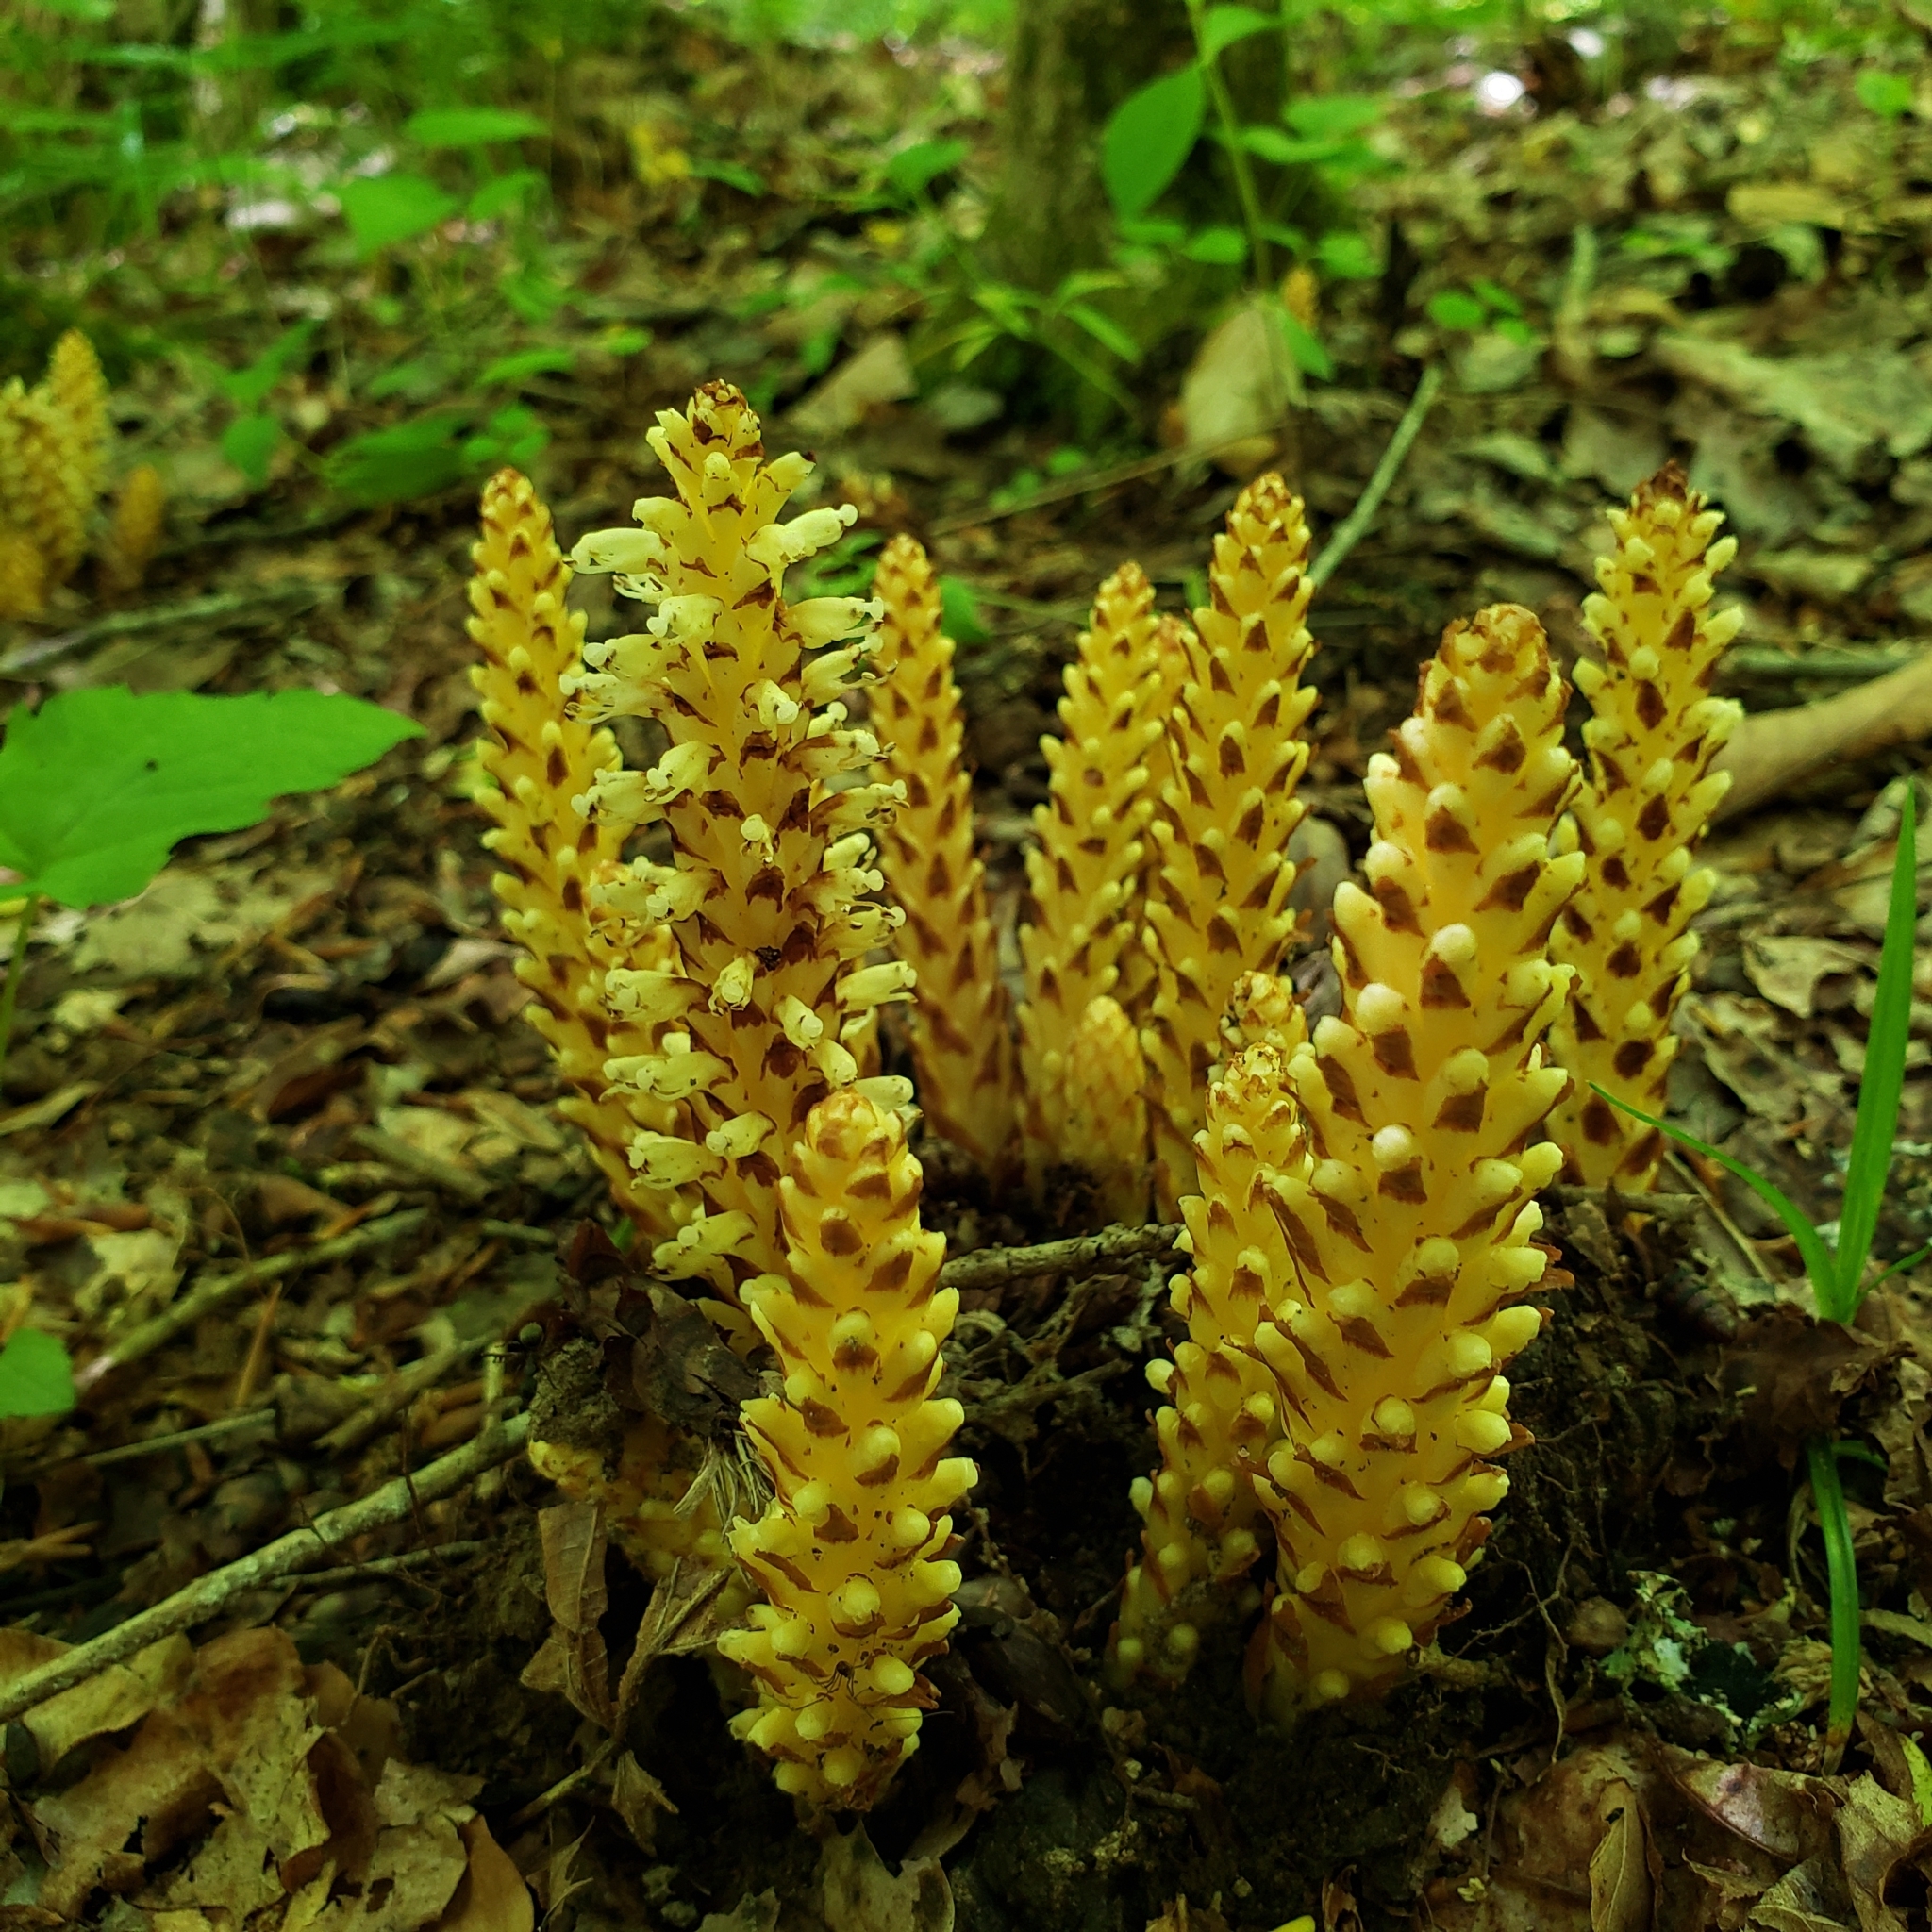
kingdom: Plantae
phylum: Tracheophyta
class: Magnoliopsida
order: Lamiales
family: Orobanchaceae
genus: Conopholis
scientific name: Conopholis americana
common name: American cancer-root
